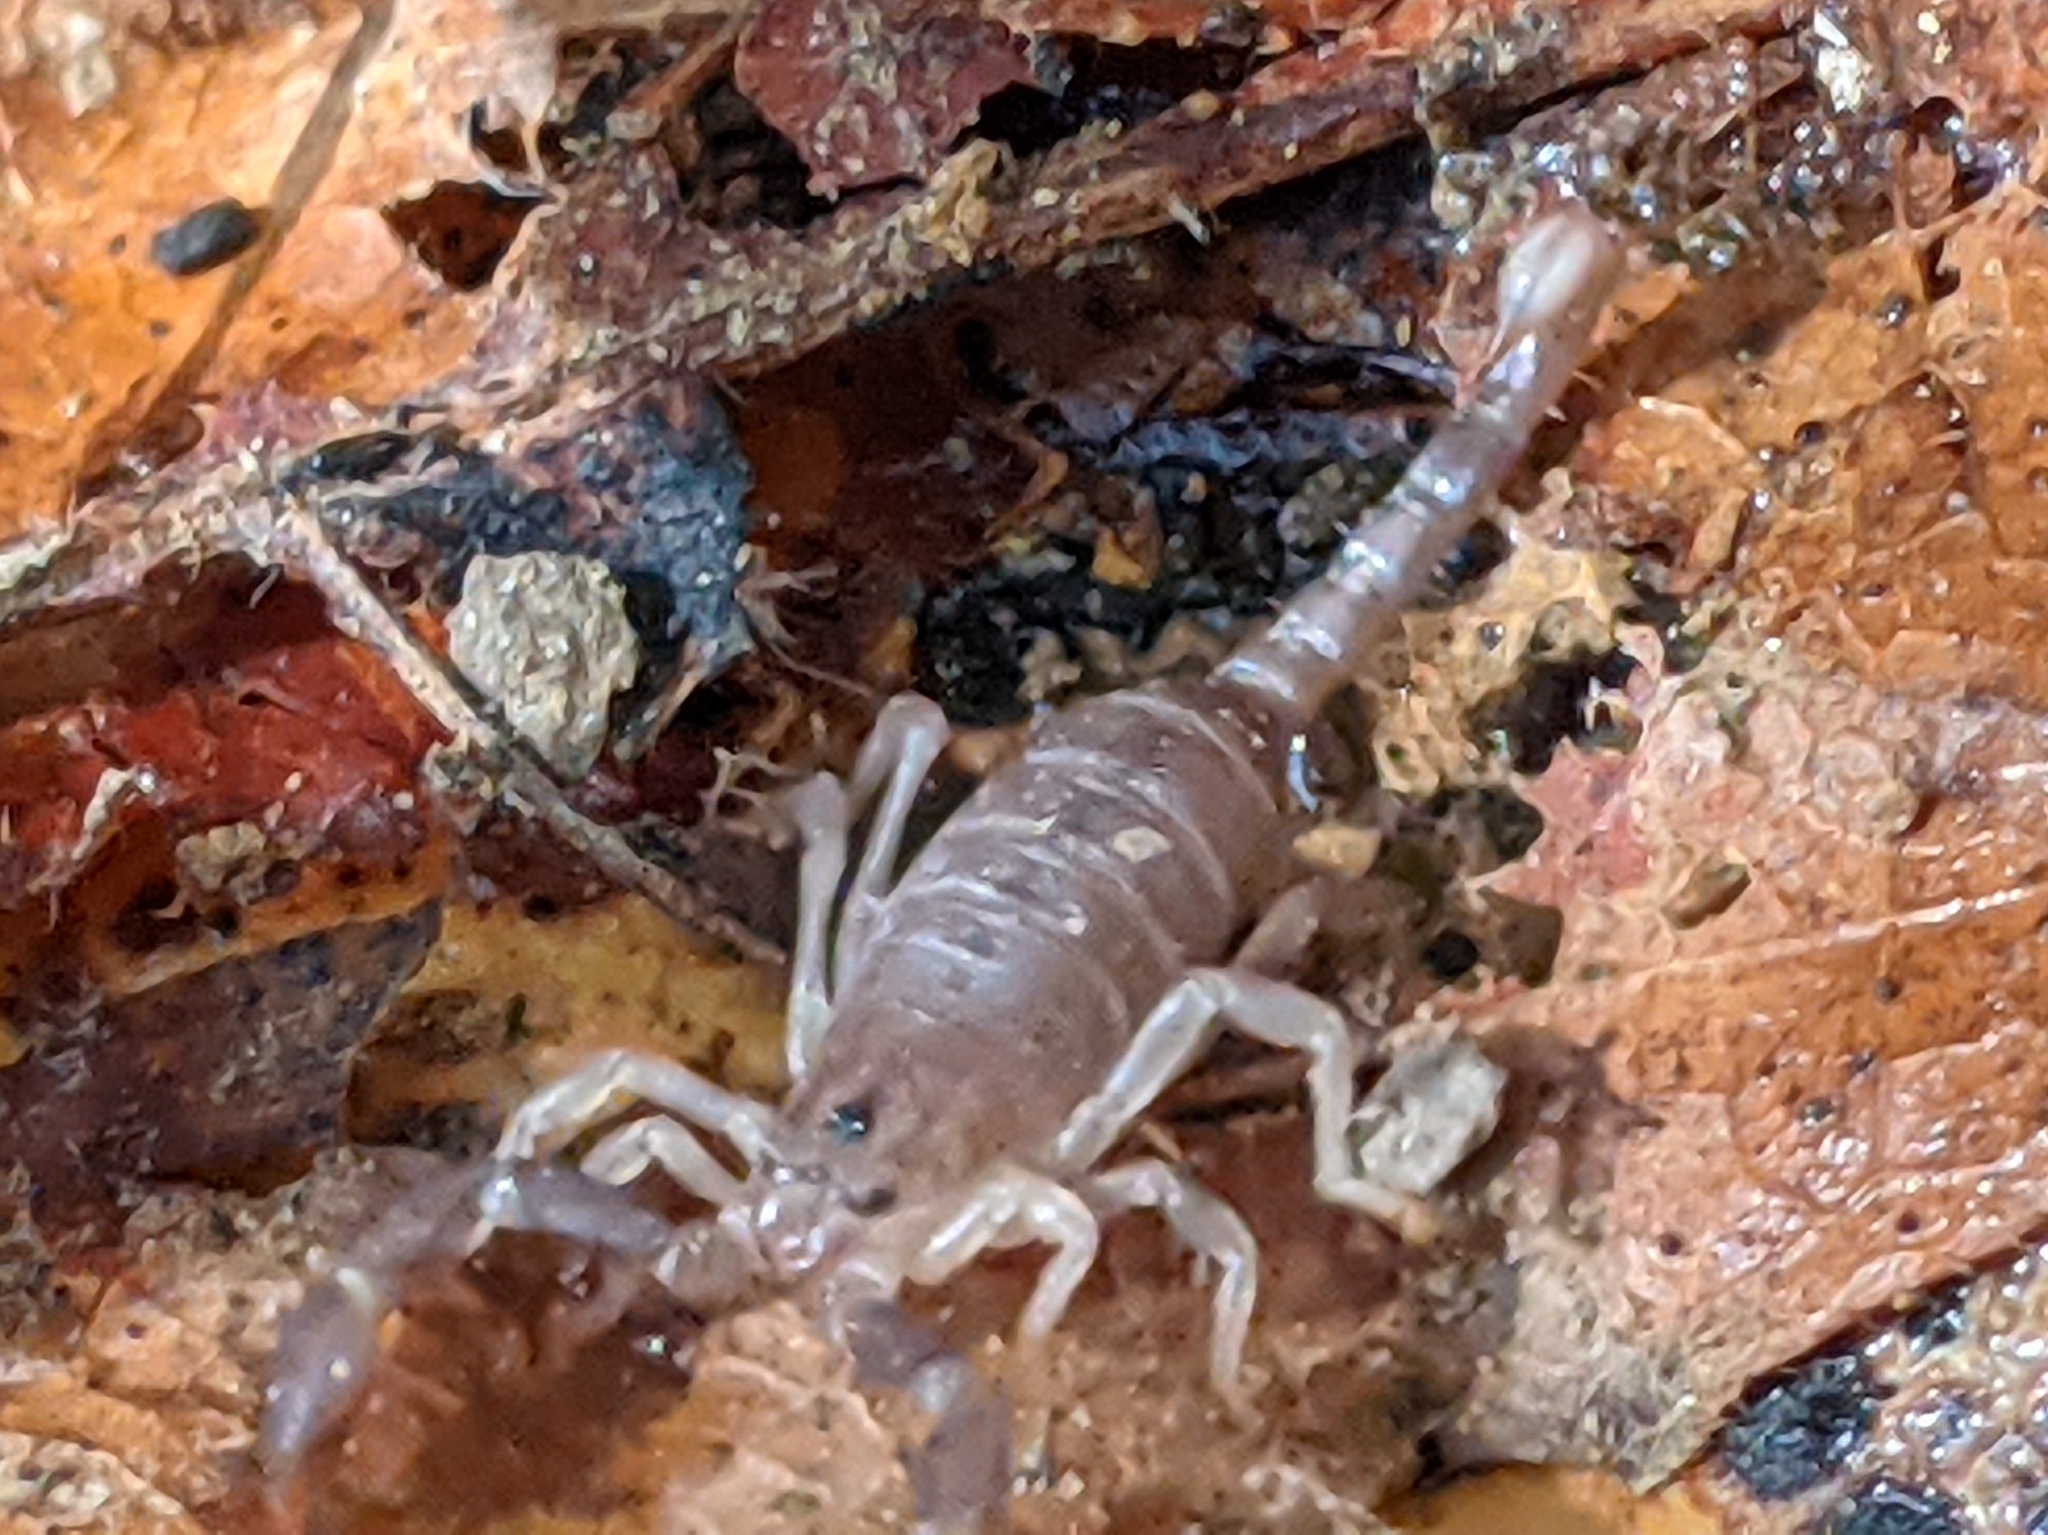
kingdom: Animalia
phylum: Arthropoda
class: Arachnida
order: Scorpiones
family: Chactidae
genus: Uroctonus
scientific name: Uroctonus mordax
